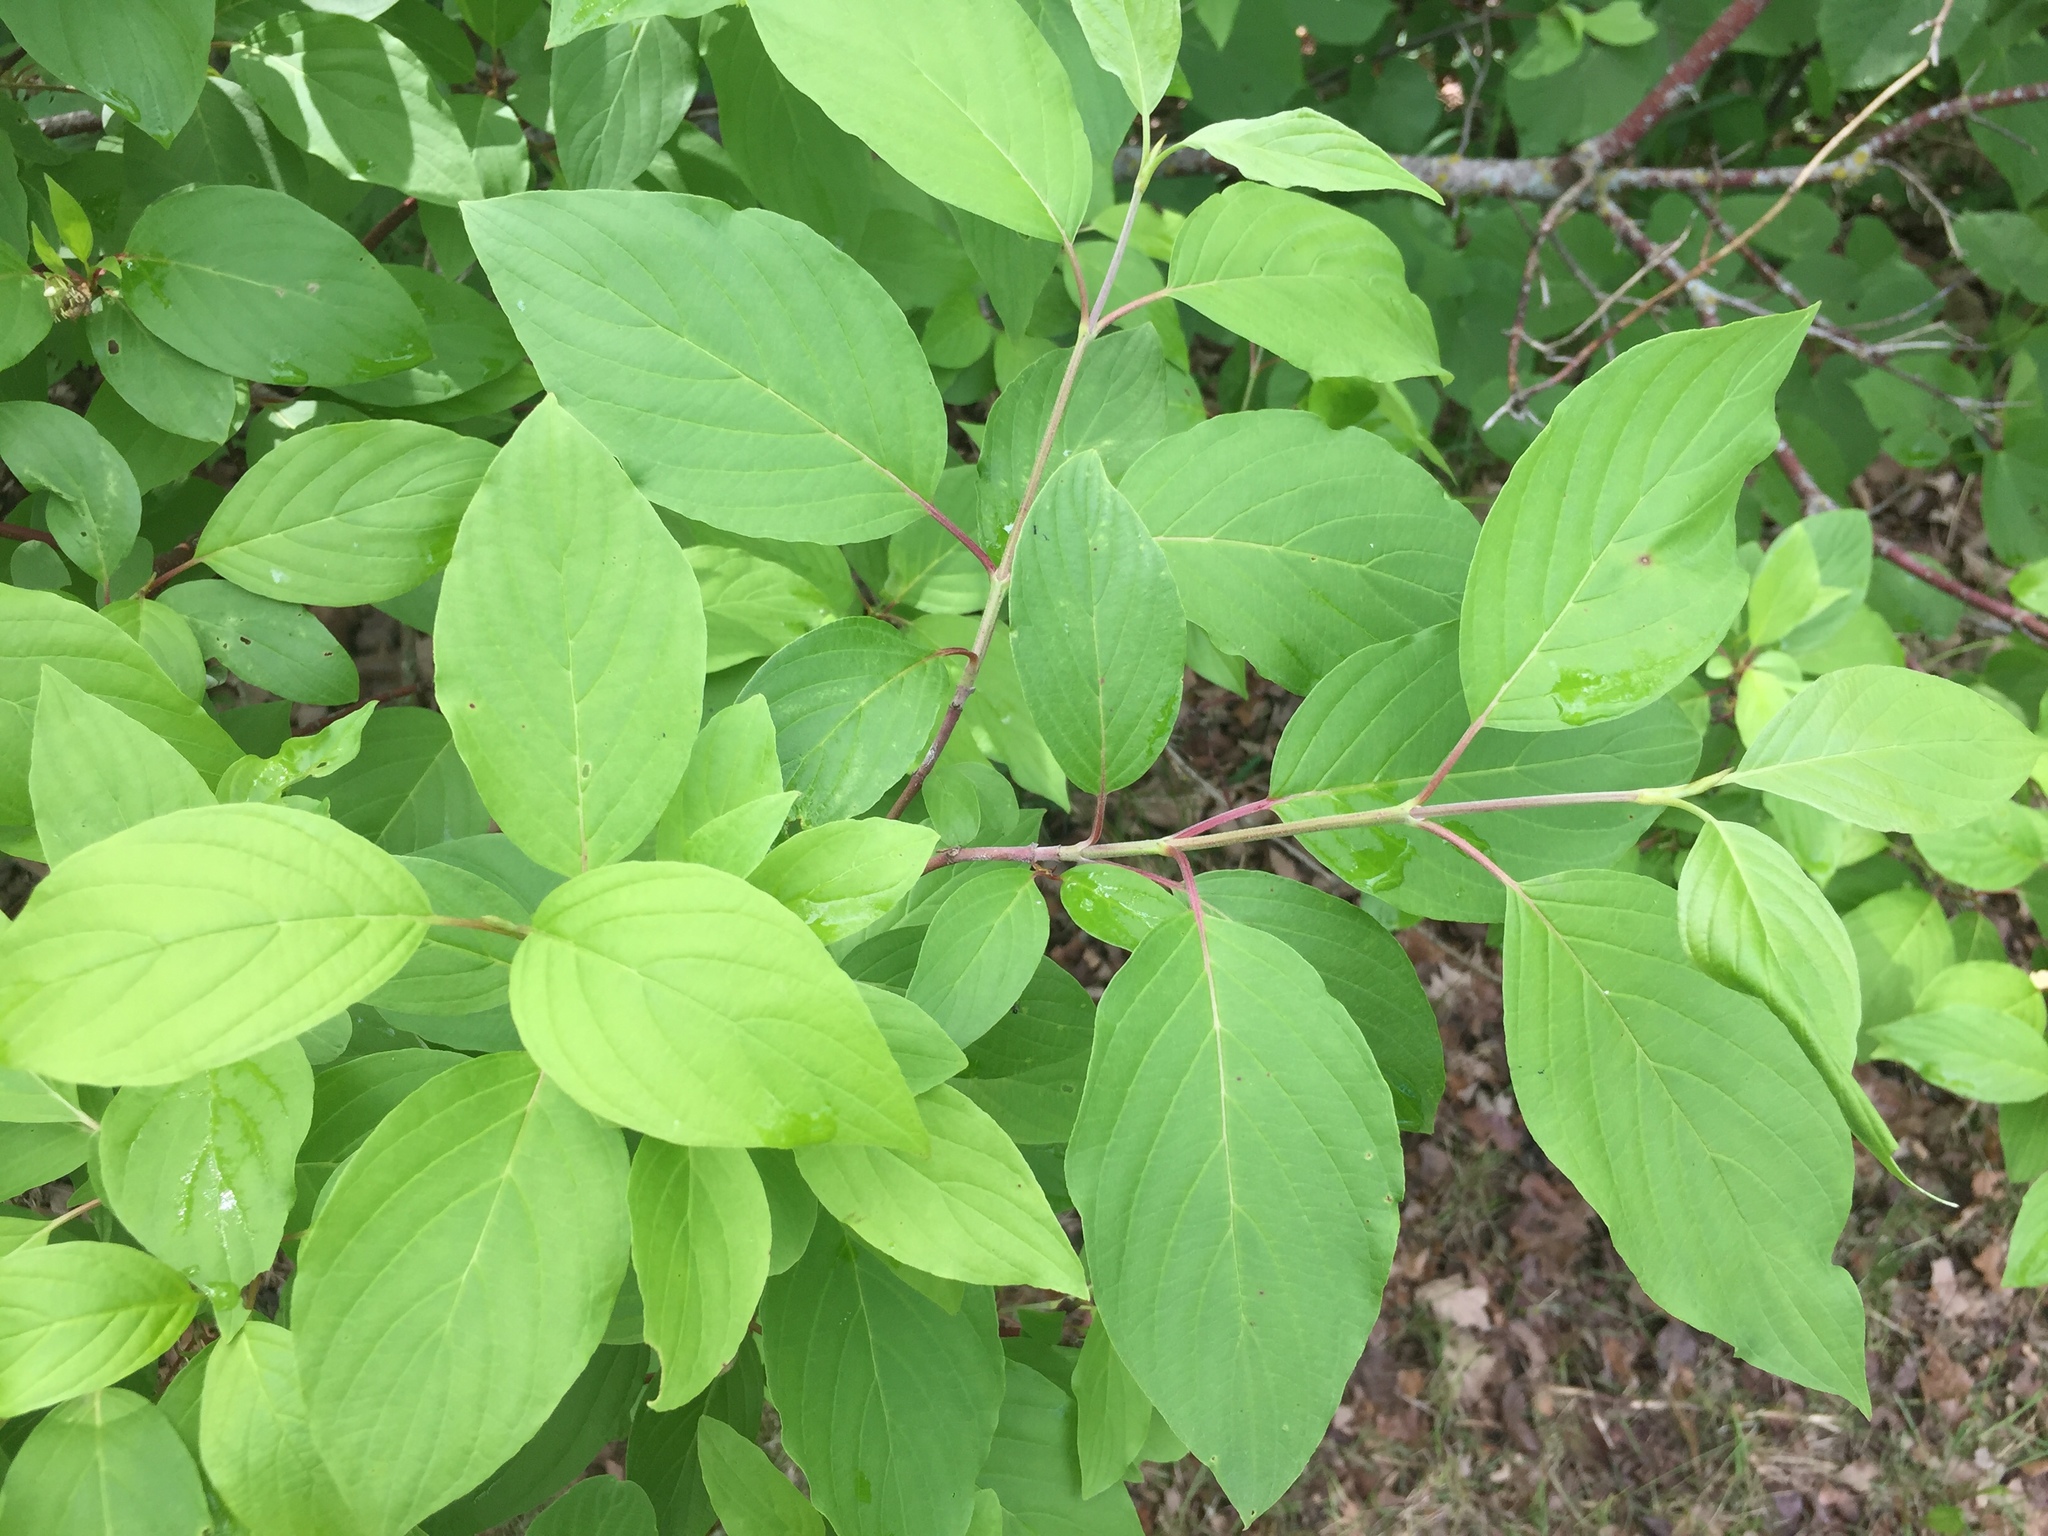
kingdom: Plantae
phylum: Tracheophyta
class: Magnoliopsida
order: Cornales
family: Cornaceae
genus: Cornus
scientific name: Cornus sericea
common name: Red-osier dogwood
